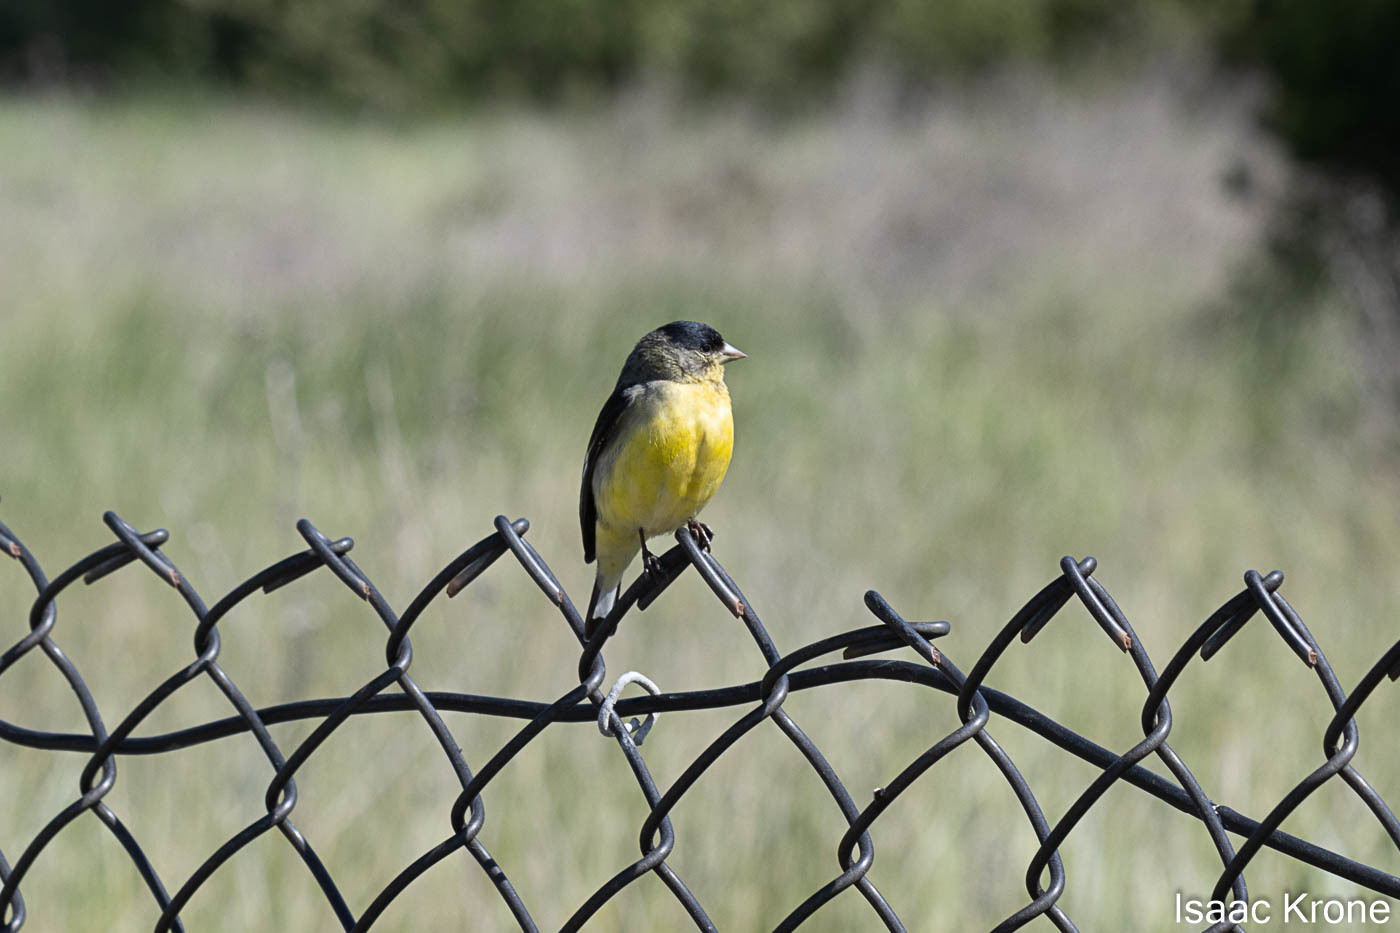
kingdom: Animalia
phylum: Chordata
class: Aves
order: Passeriformes
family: Fringillidae
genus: Spinus
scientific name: Spinus psaltria
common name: Lesser goldfinch
